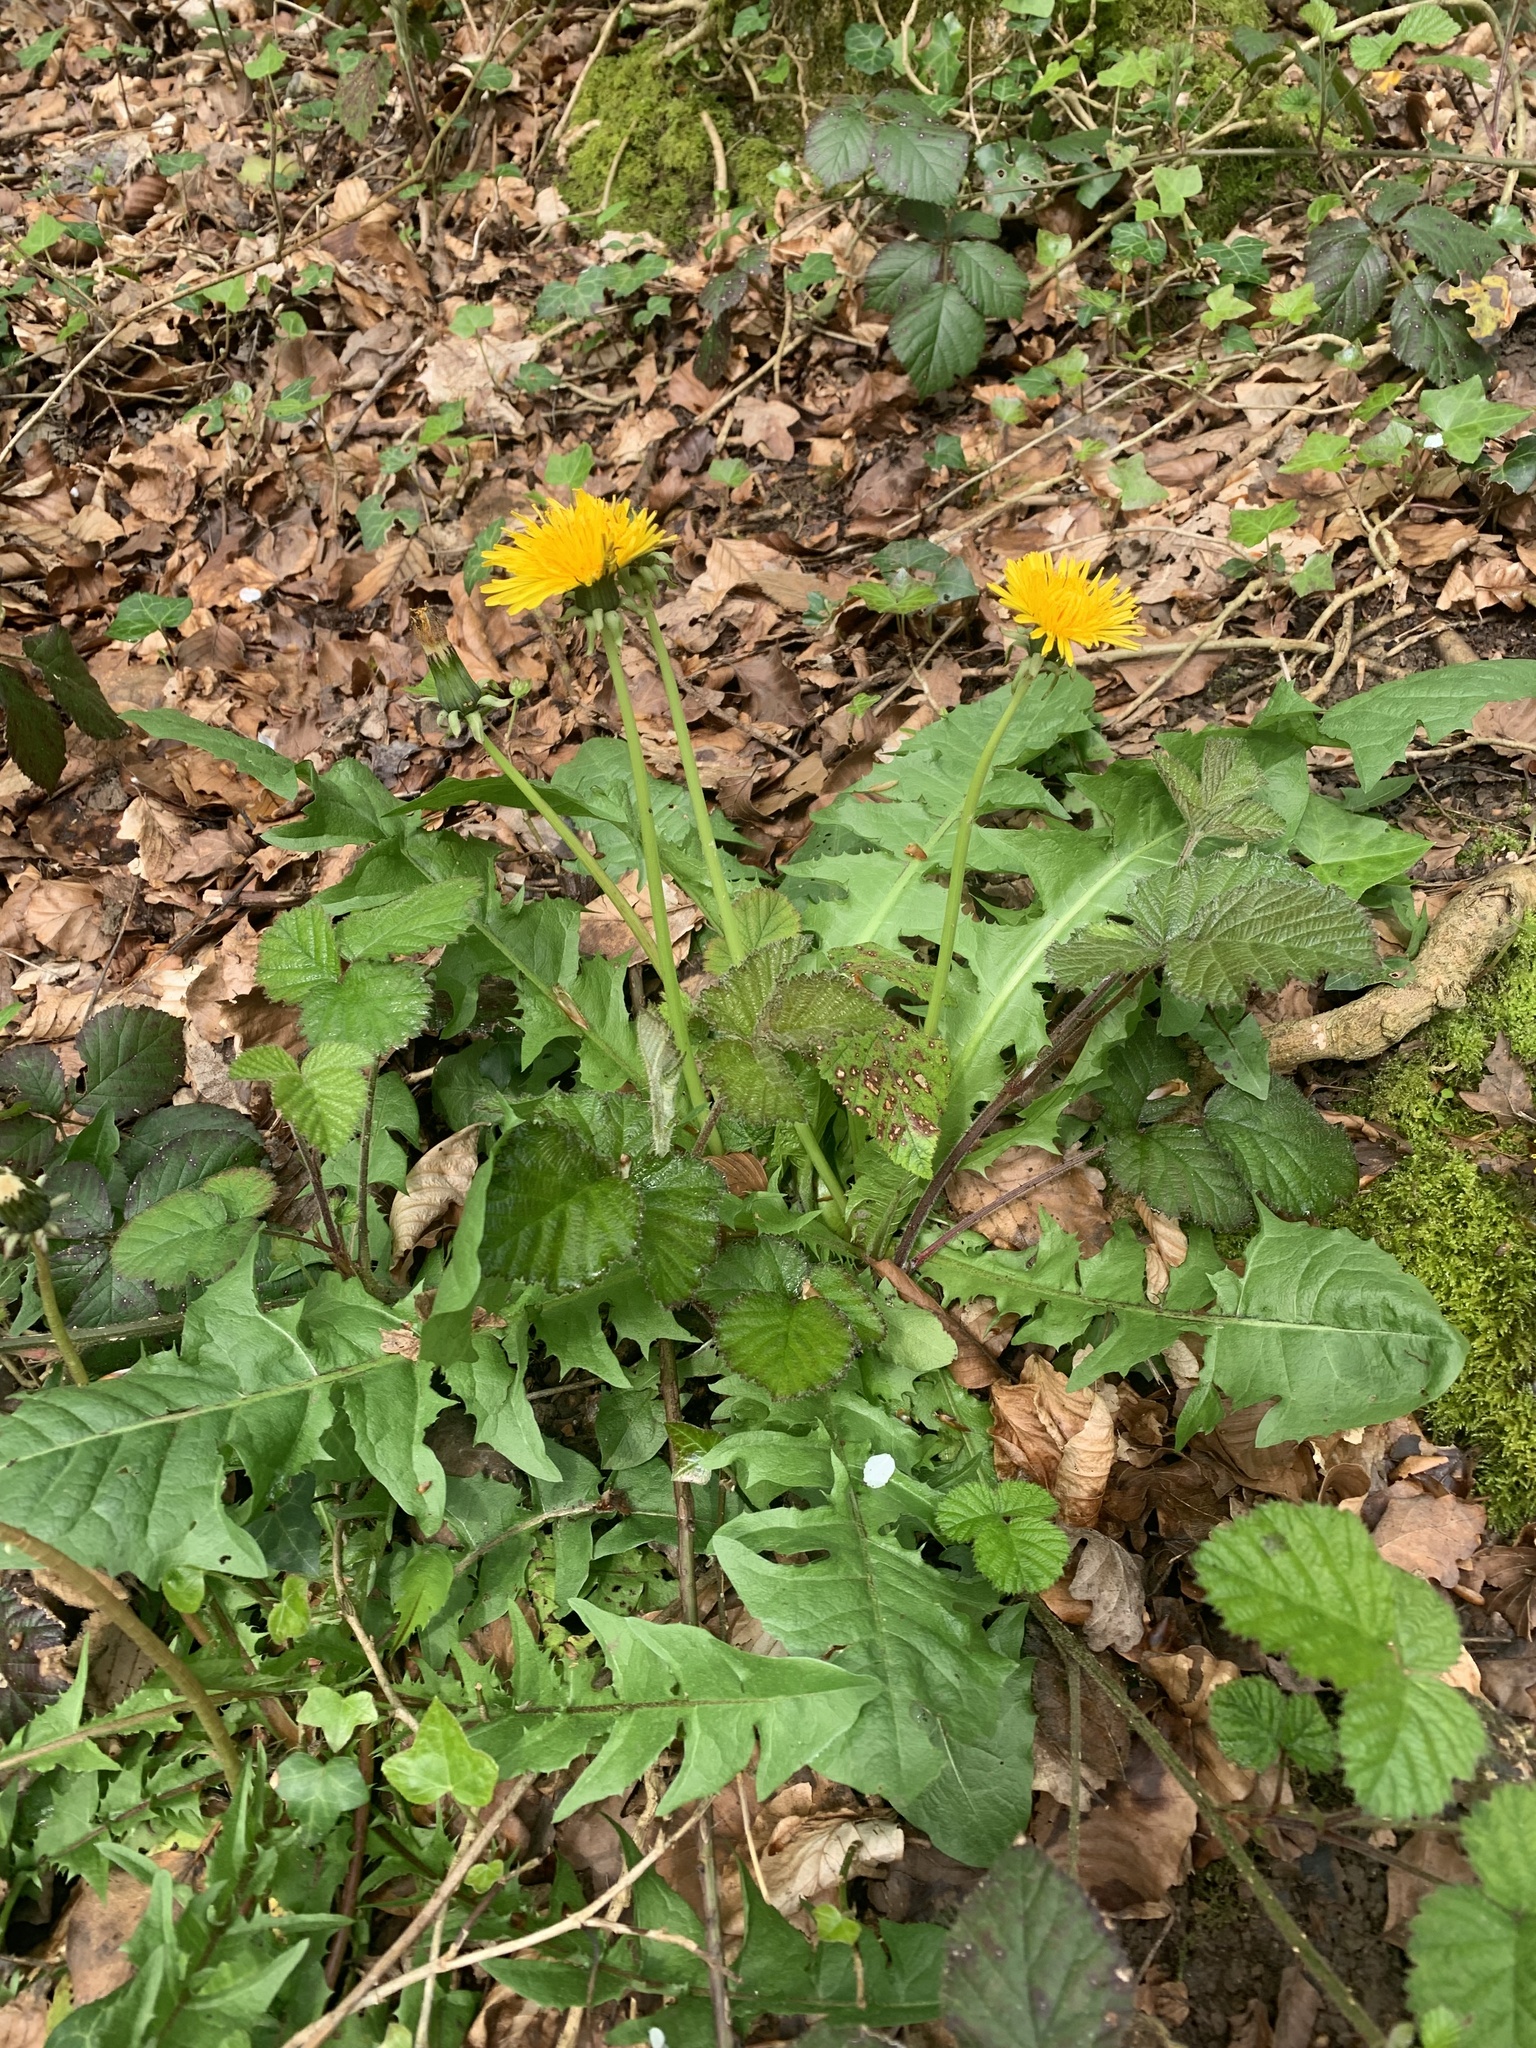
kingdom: Plantae
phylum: Tracheophyta
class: Magnoliopsida
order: Asterales
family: Asteraceae
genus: Taraxacum
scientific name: Taraxacum officinale
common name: Common dandelion
